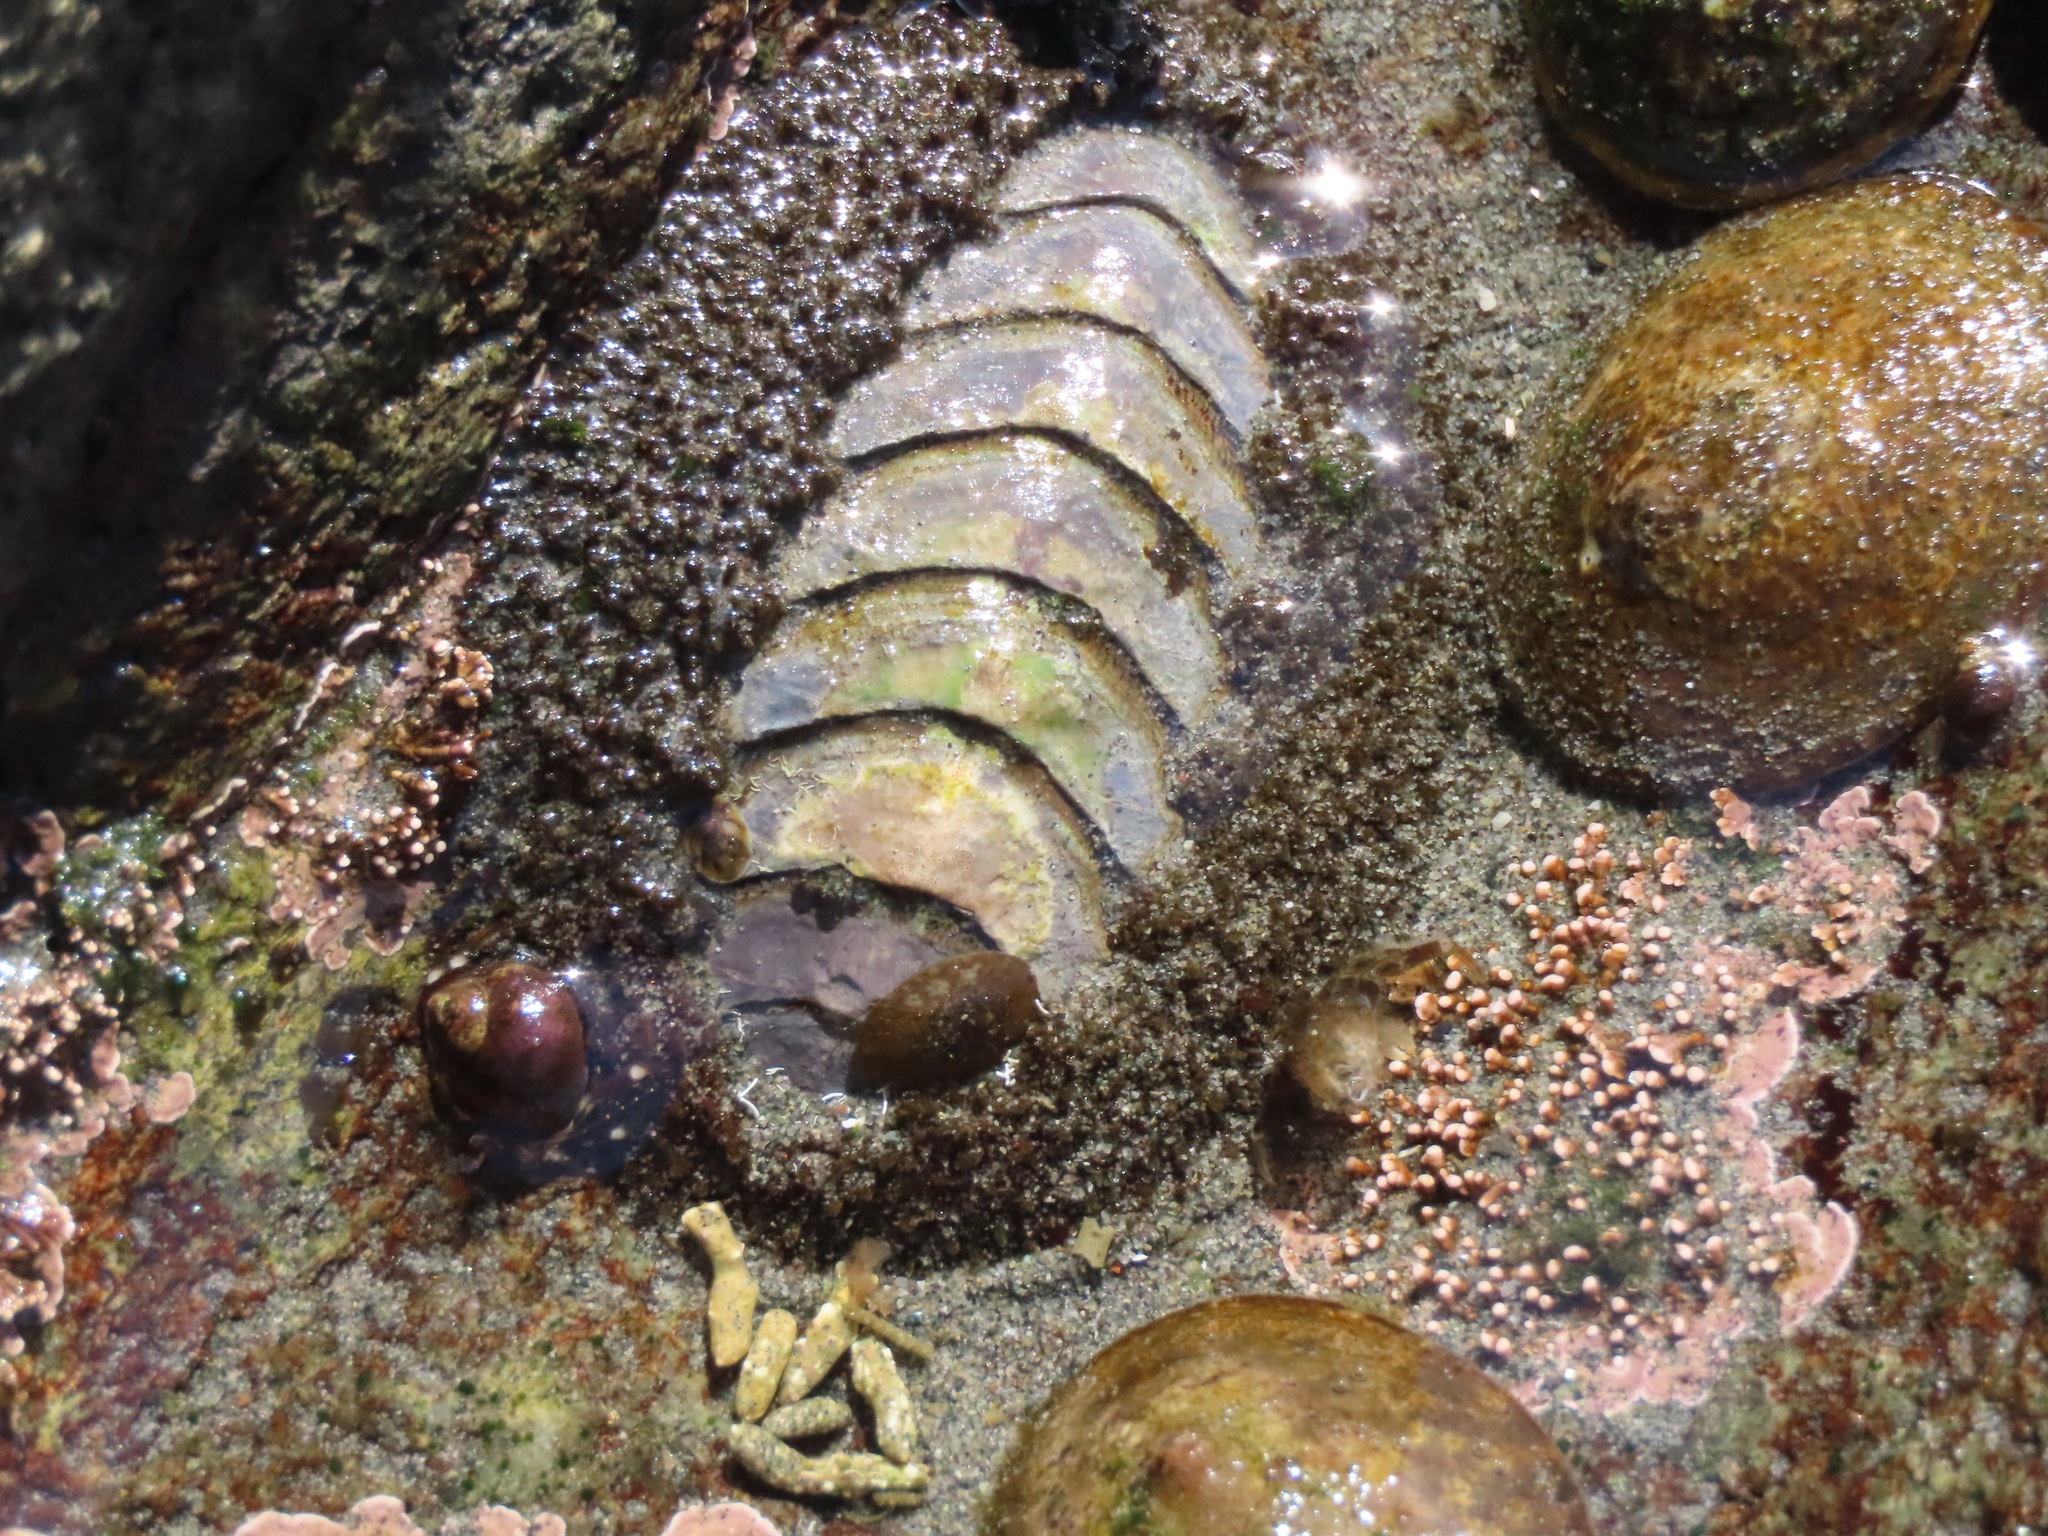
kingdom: Animalia
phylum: Mollusca
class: Polyplacophora
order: Chitonida
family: Mopaliidae
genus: Mopalia
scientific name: Mopalia muscosa
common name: Mossy chiton
